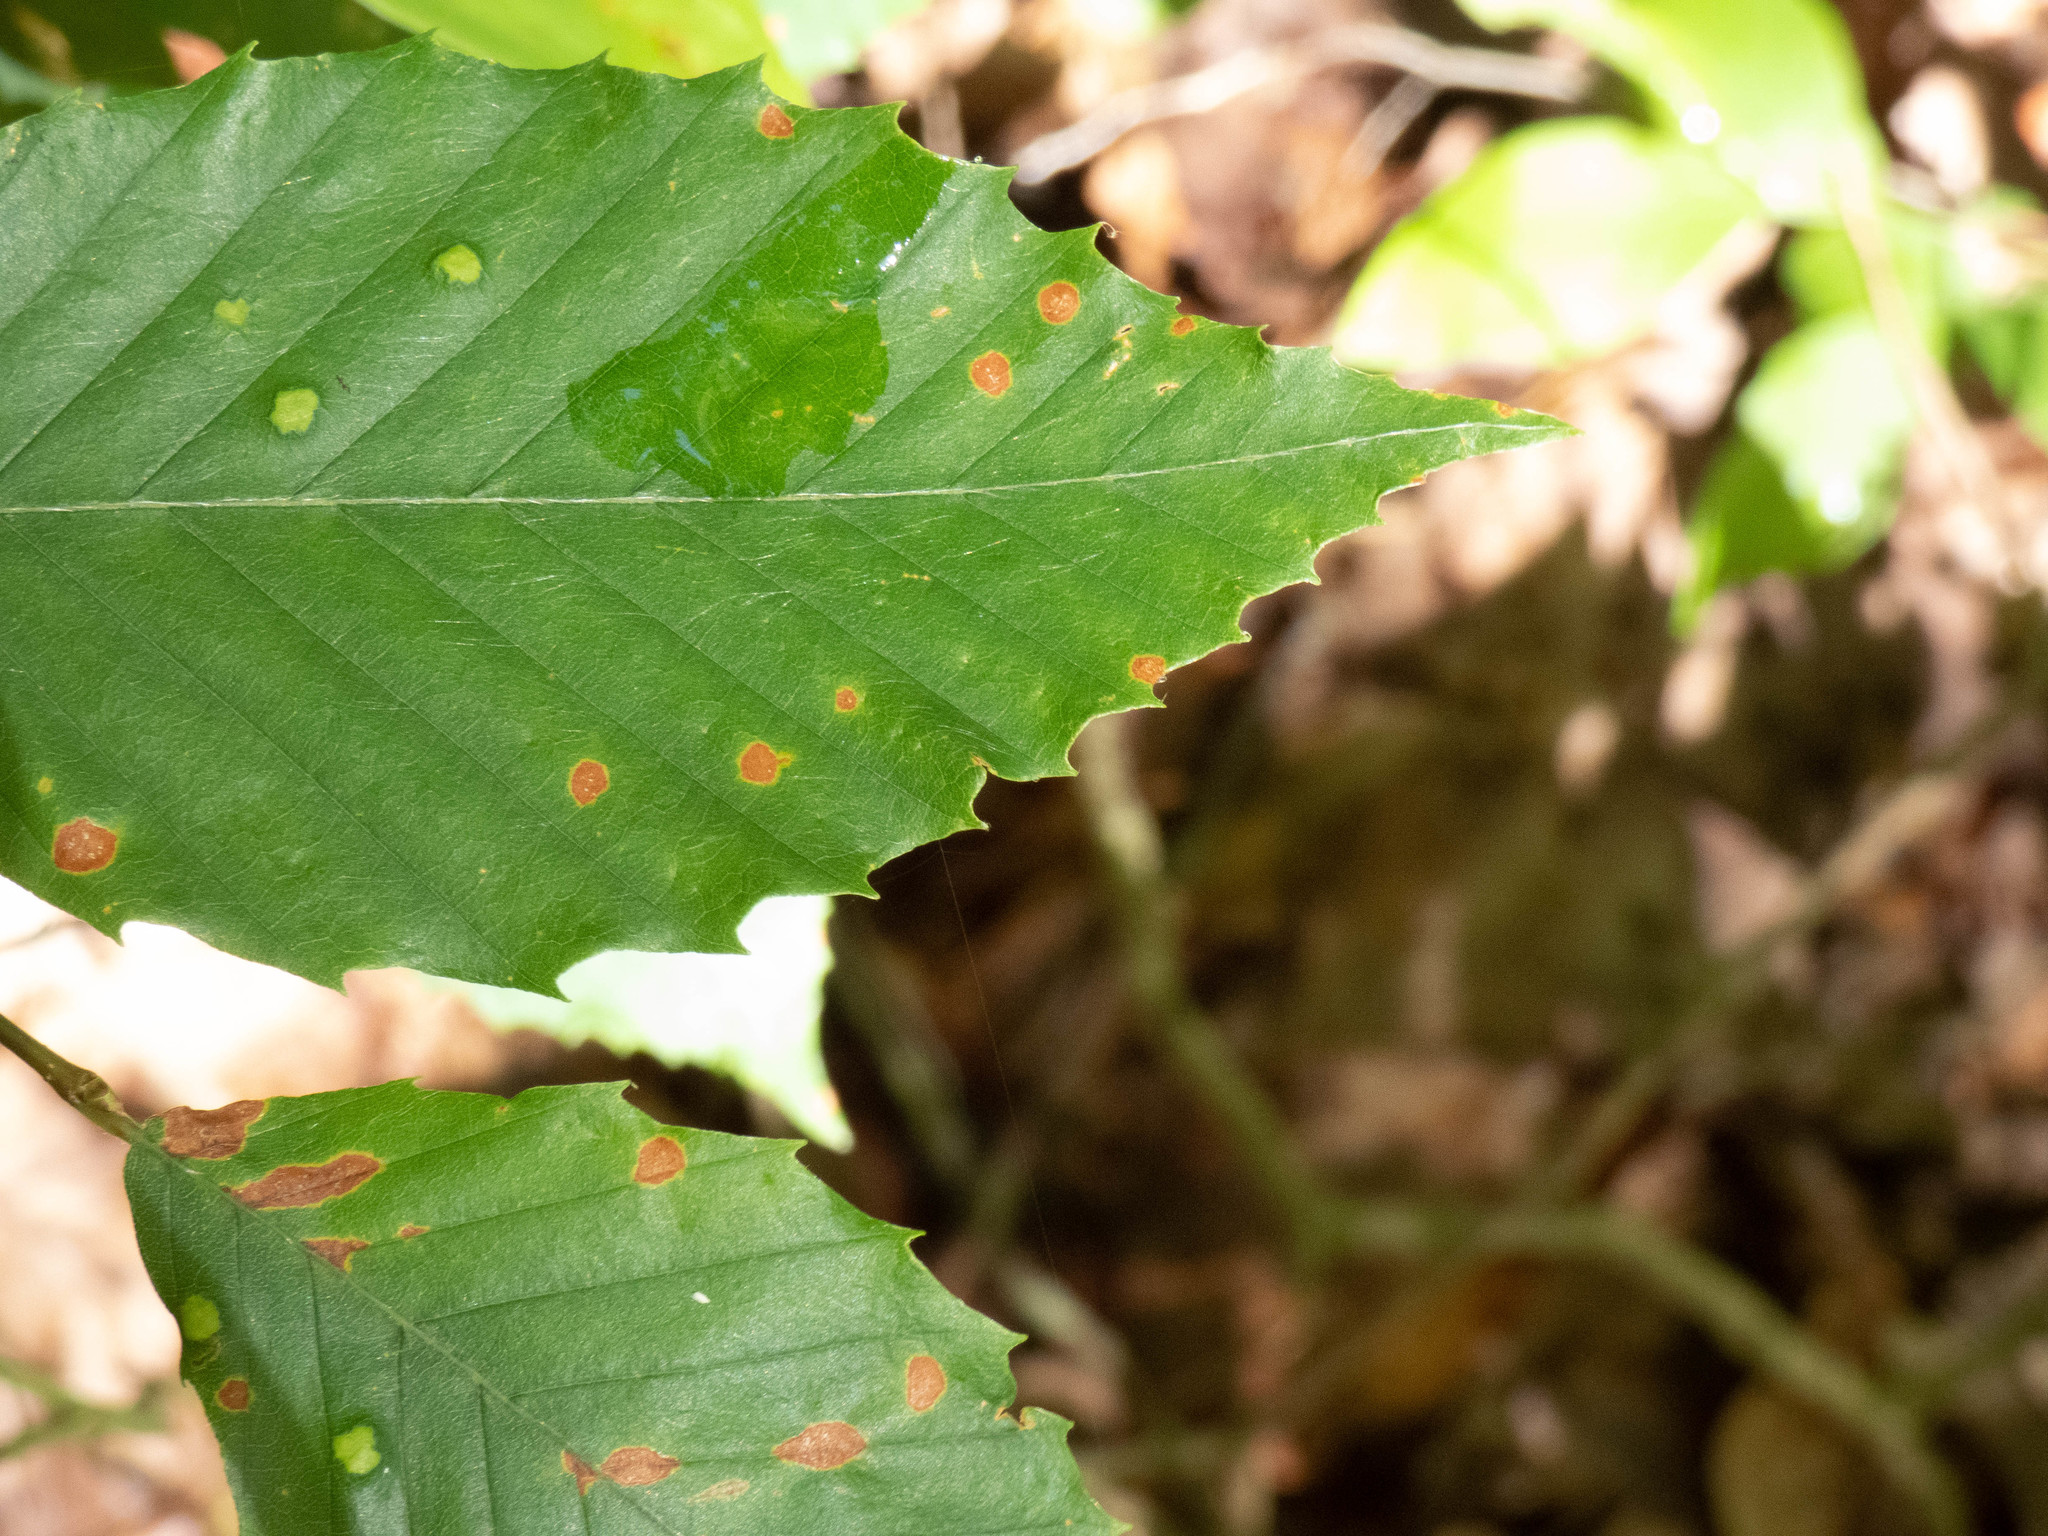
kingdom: Animalia
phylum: Arthropoda
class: Arachnida
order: Trombidiformes
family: Eriophyidae
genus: Acalitus
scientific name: Acalitus
